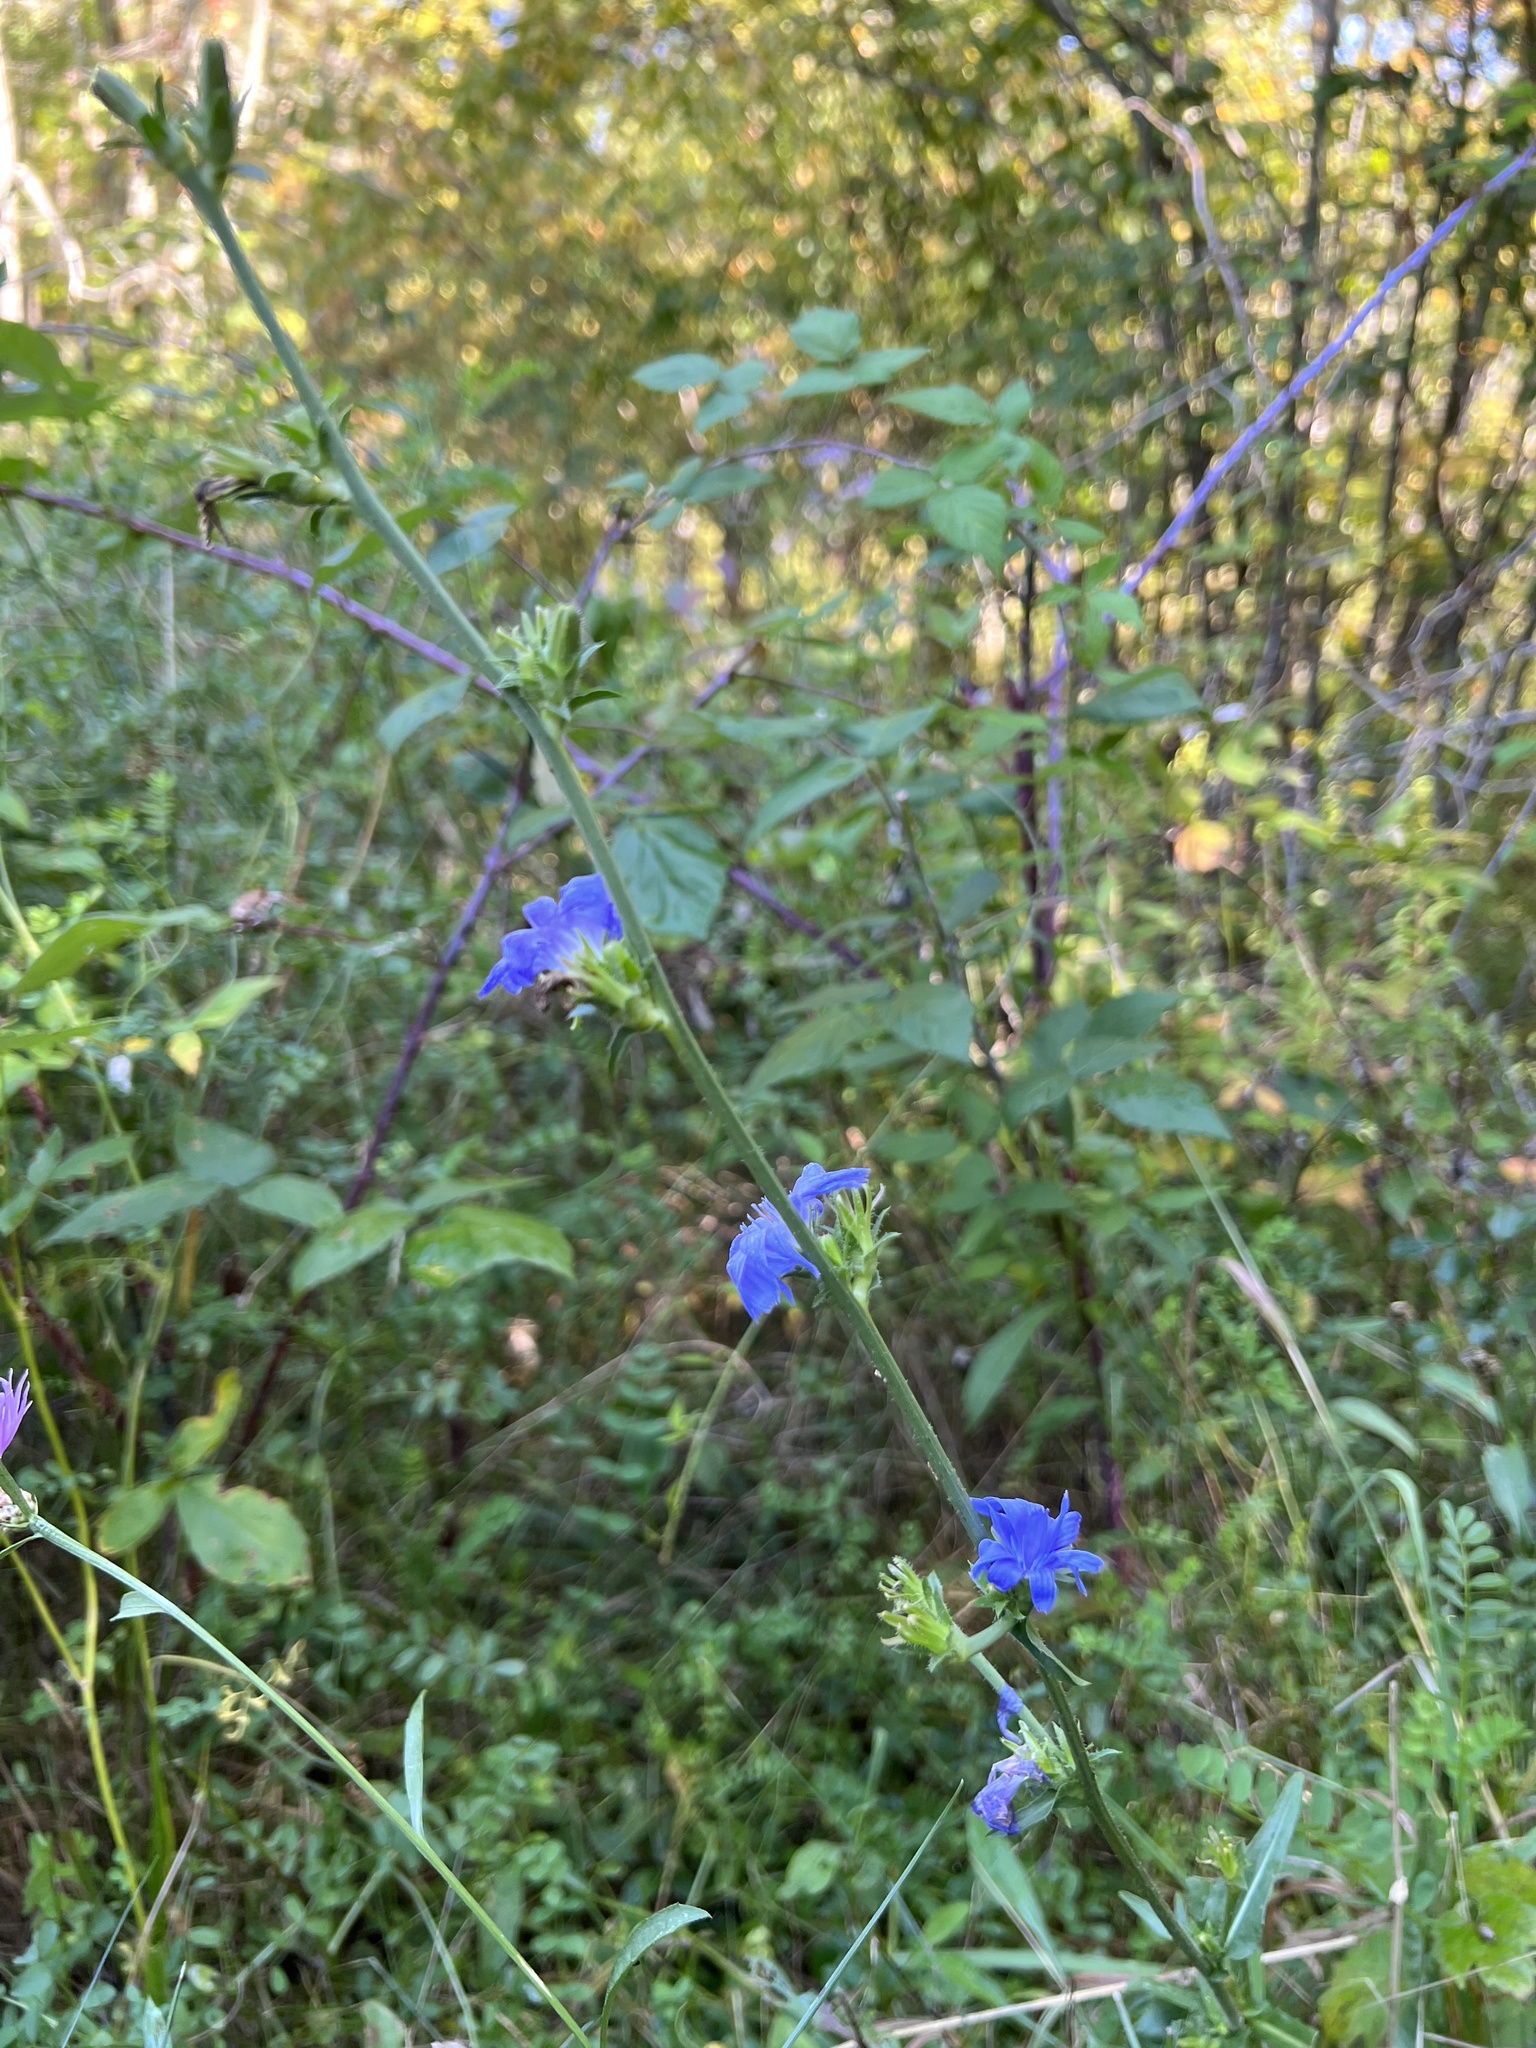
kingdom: Plantae
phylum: Tracheophyta
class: Magnoliopsida
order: Asterales
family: Asteraceae
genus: Cichorium
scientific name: Cichorium intybus
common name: Chicory
